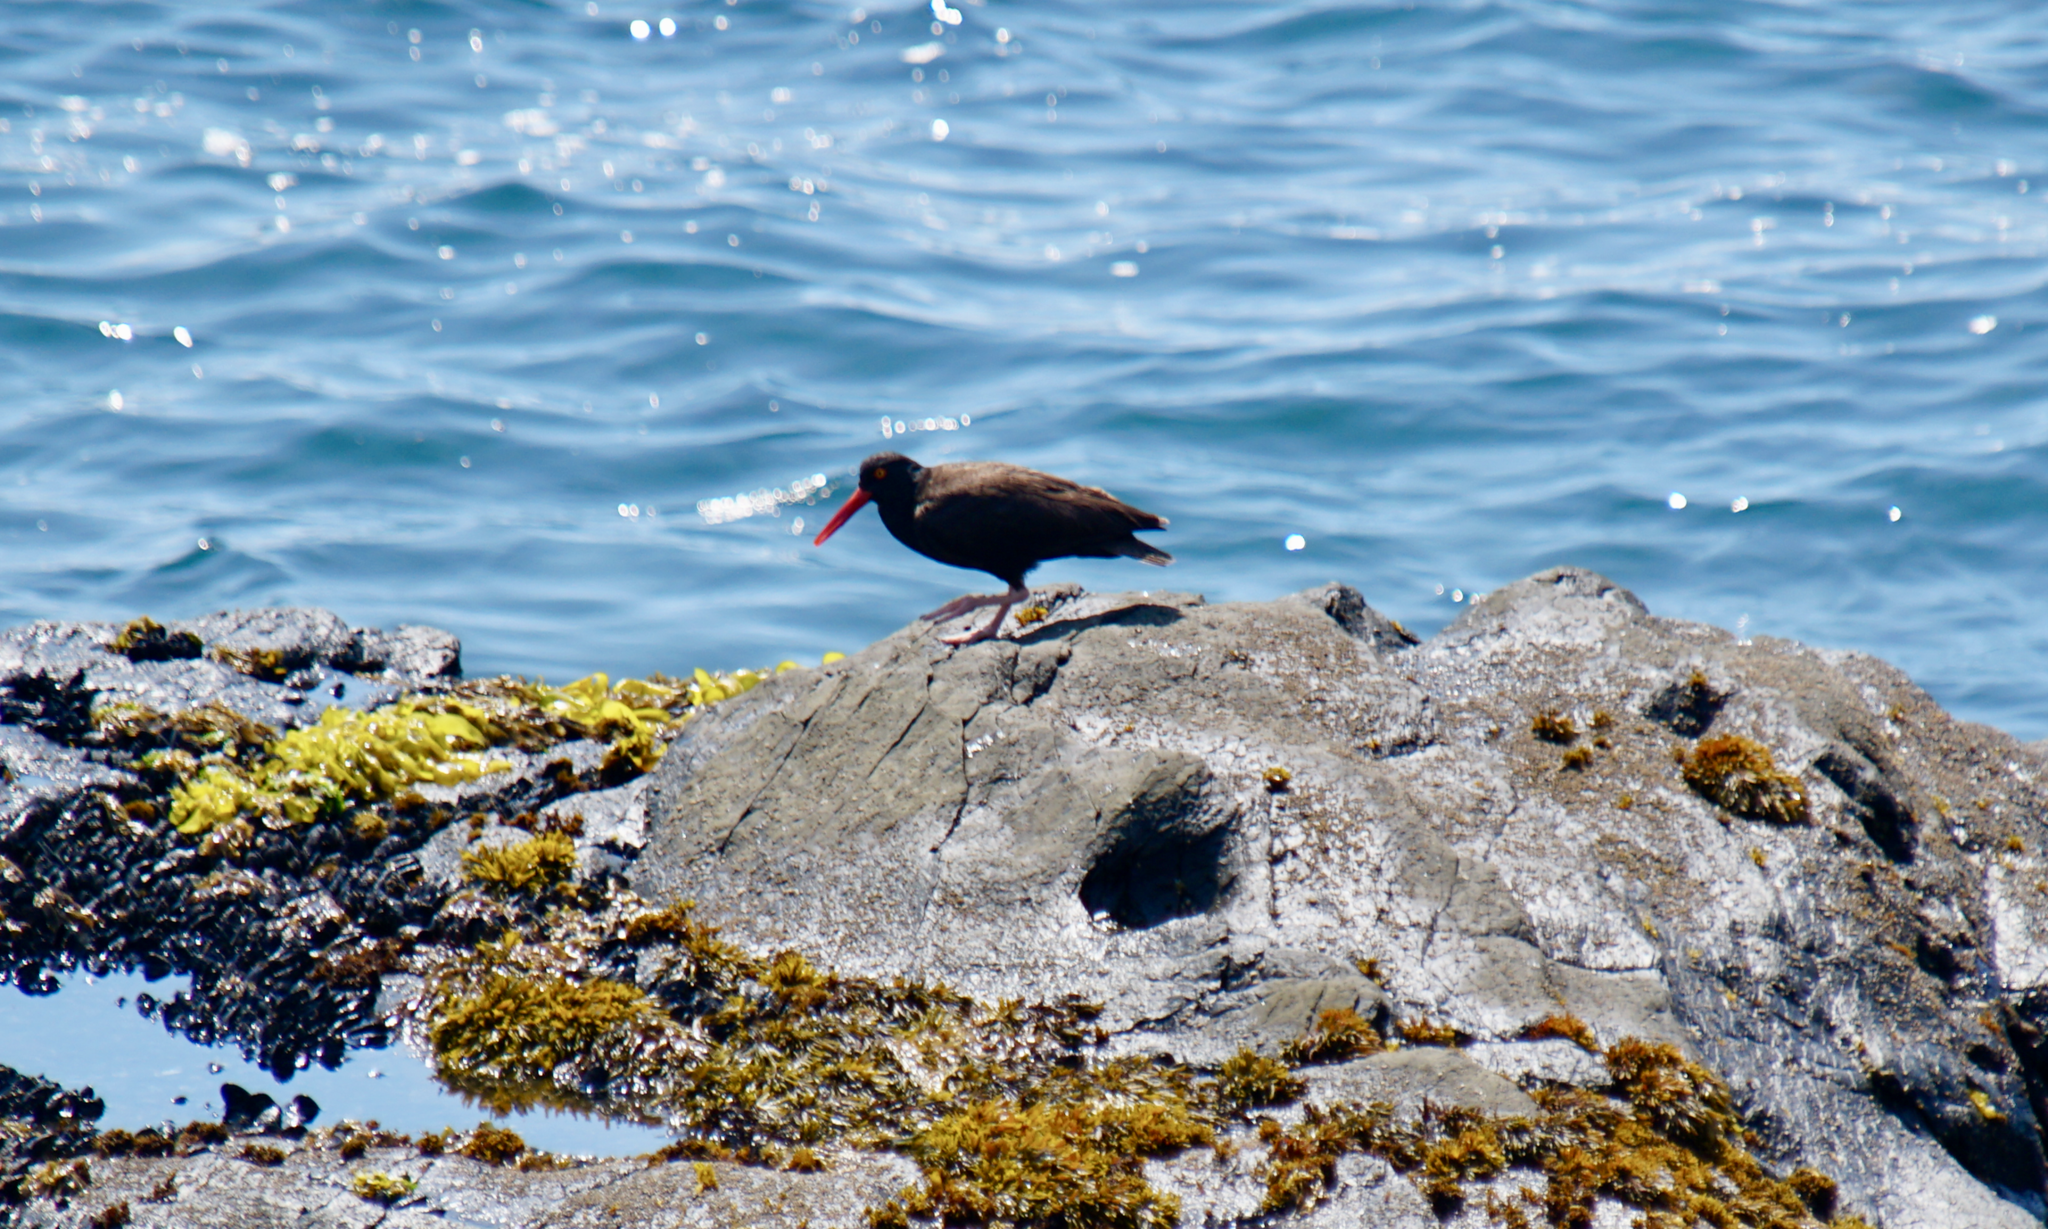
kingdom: Animalia
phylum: Chordata
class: Aves
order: Charadriiformes
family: Haematopodidae
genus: Haematopus
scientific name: Haematopus bachmani
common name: Black oystercatcher
